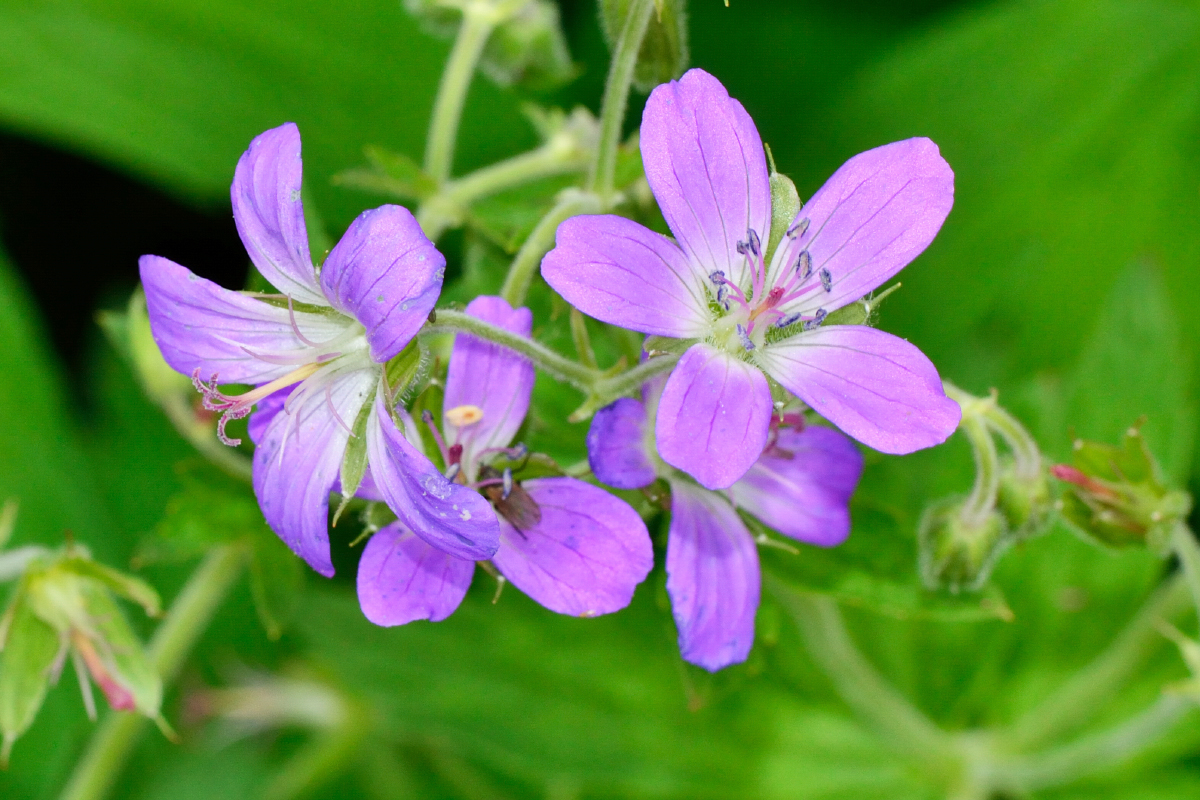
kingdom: Plantae
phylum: Tracheophyta
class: Magnoliopsida
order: Geraniales
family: Geraniaceae
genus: Geranium
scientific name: Geranium sylvaticum
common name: Wood crane's-bill
